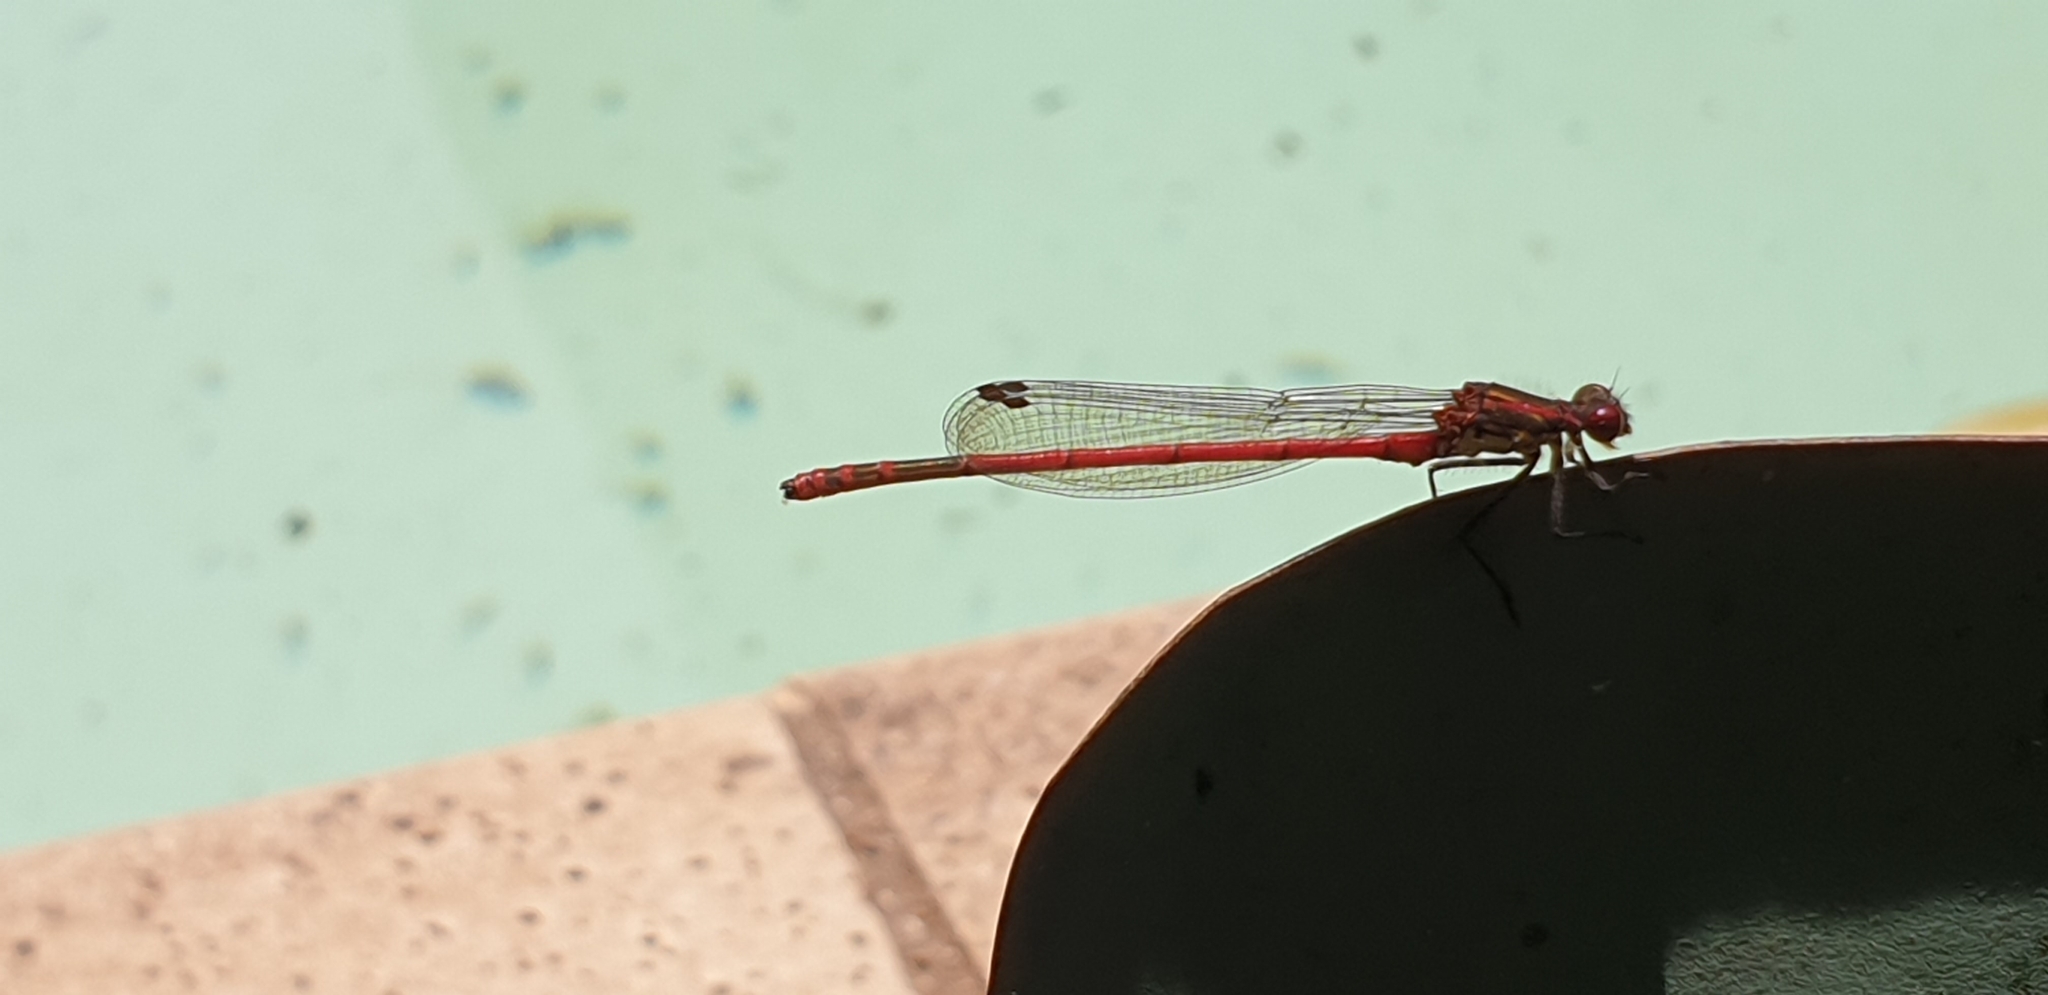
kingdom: Animalia
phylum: Arthropoda
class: Insecta
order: Odonata
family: Coenagrionidae
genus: Pyrrhosoma
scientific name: Pyrrhosoma nymphula
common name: Large red damsel
